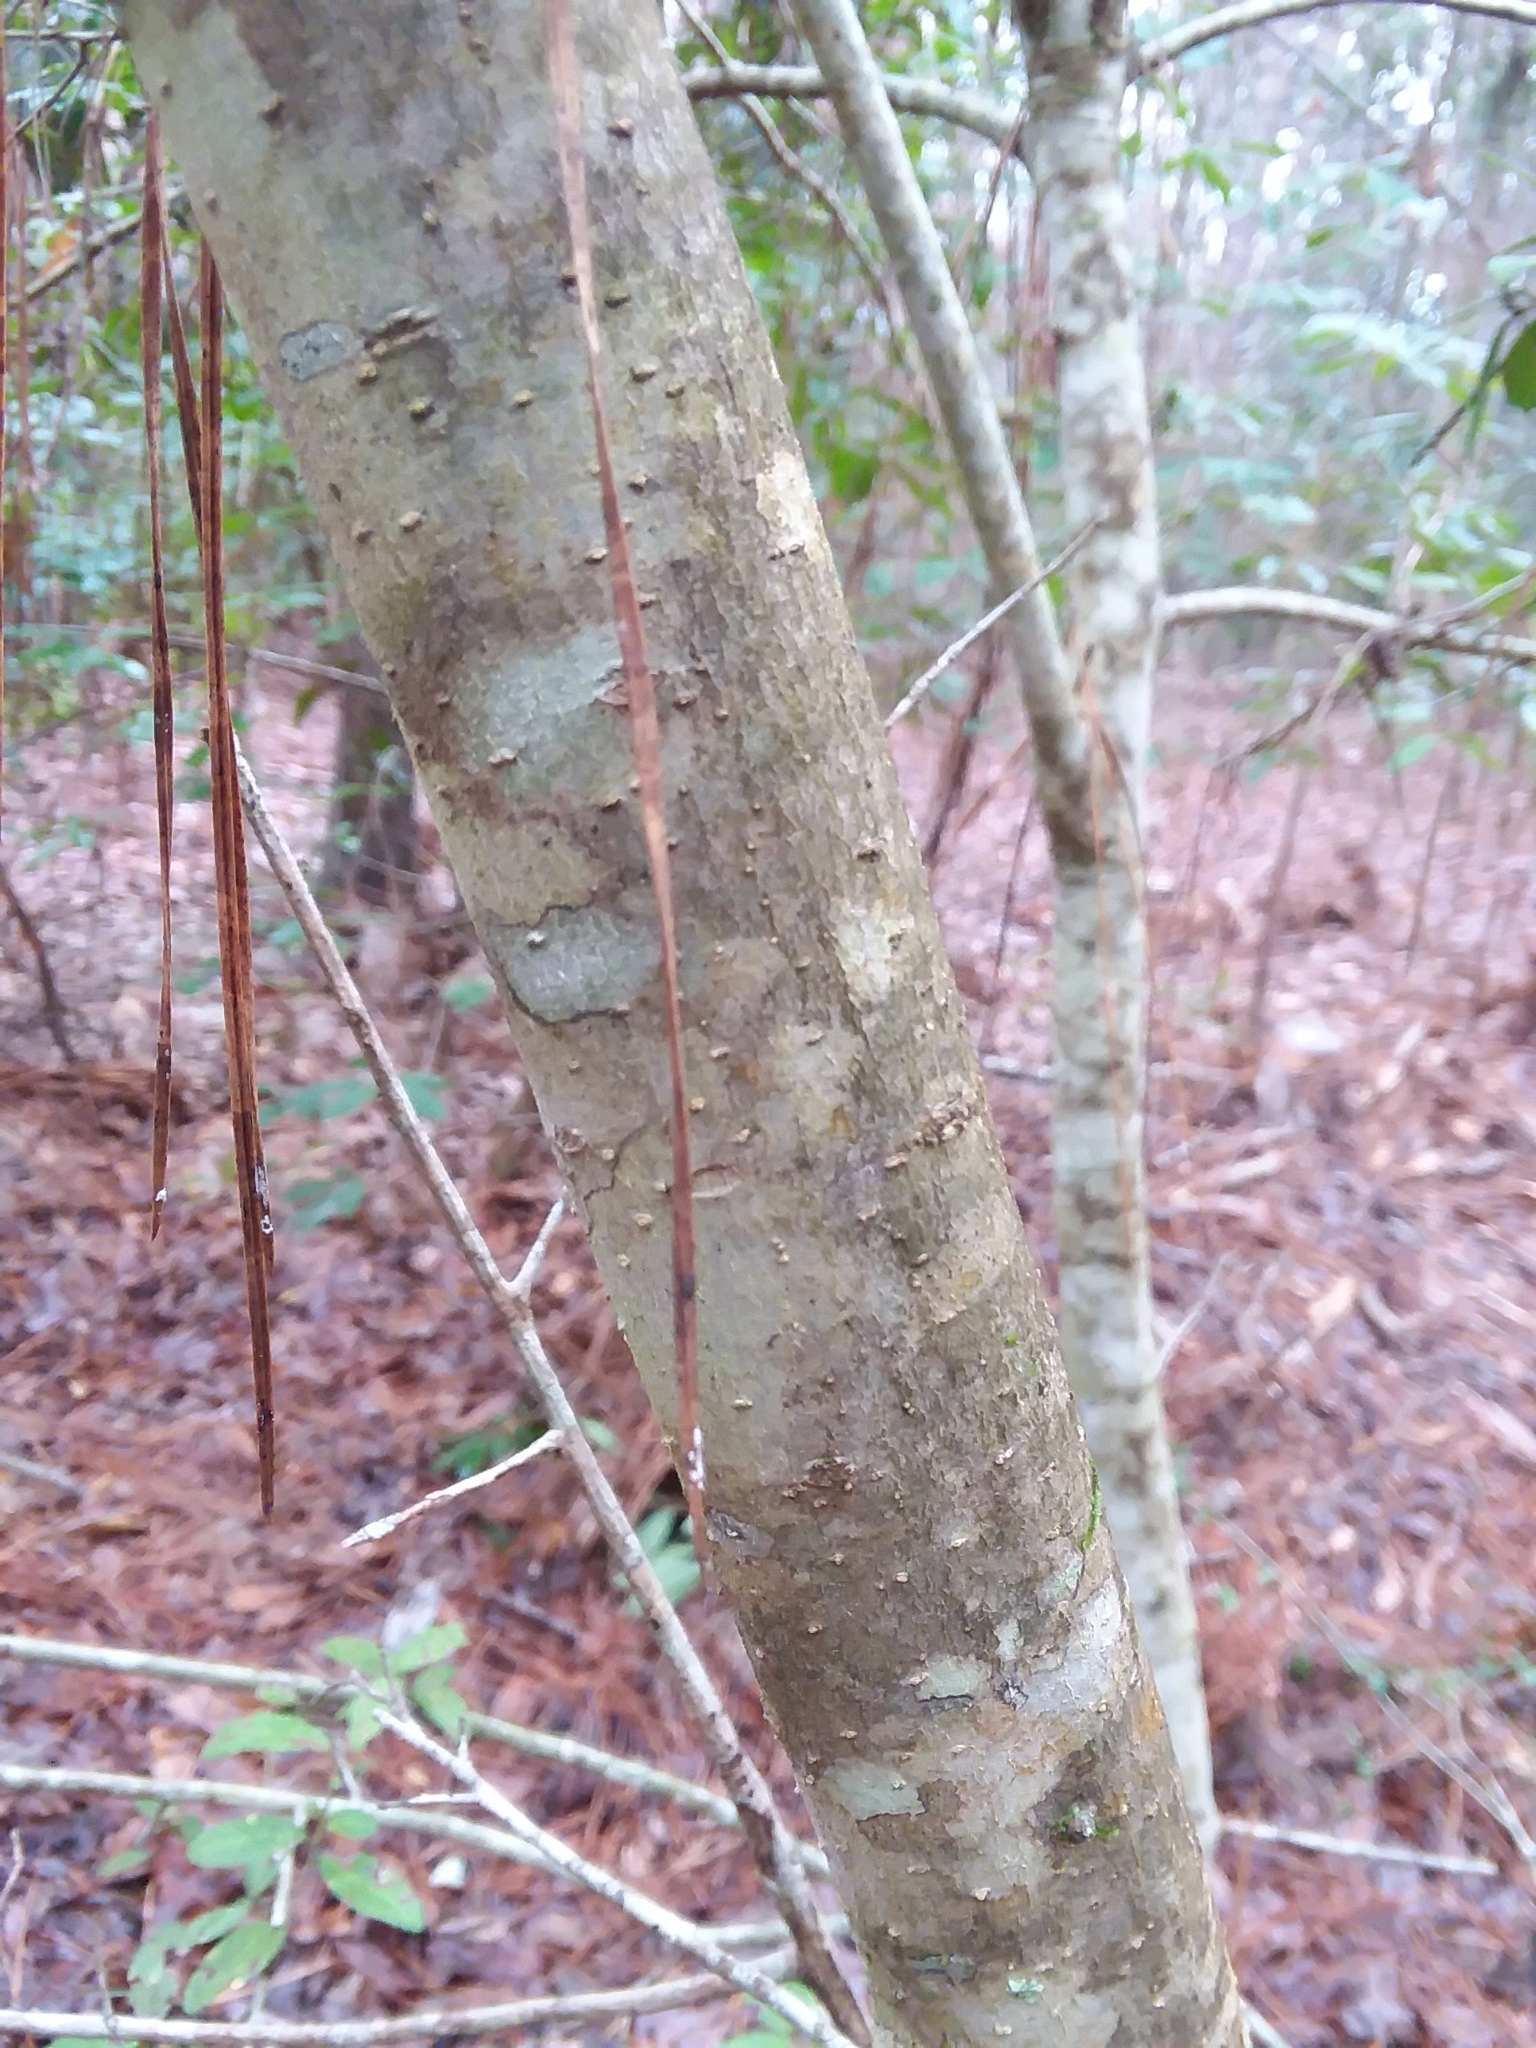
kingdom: Plantae
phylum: Tracheophyta
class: Magnoliopsida
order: Aquifoliales
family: Aquifoliaceae
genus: Ilex
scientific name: Ilex vomitoria
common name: Yaupon holly
